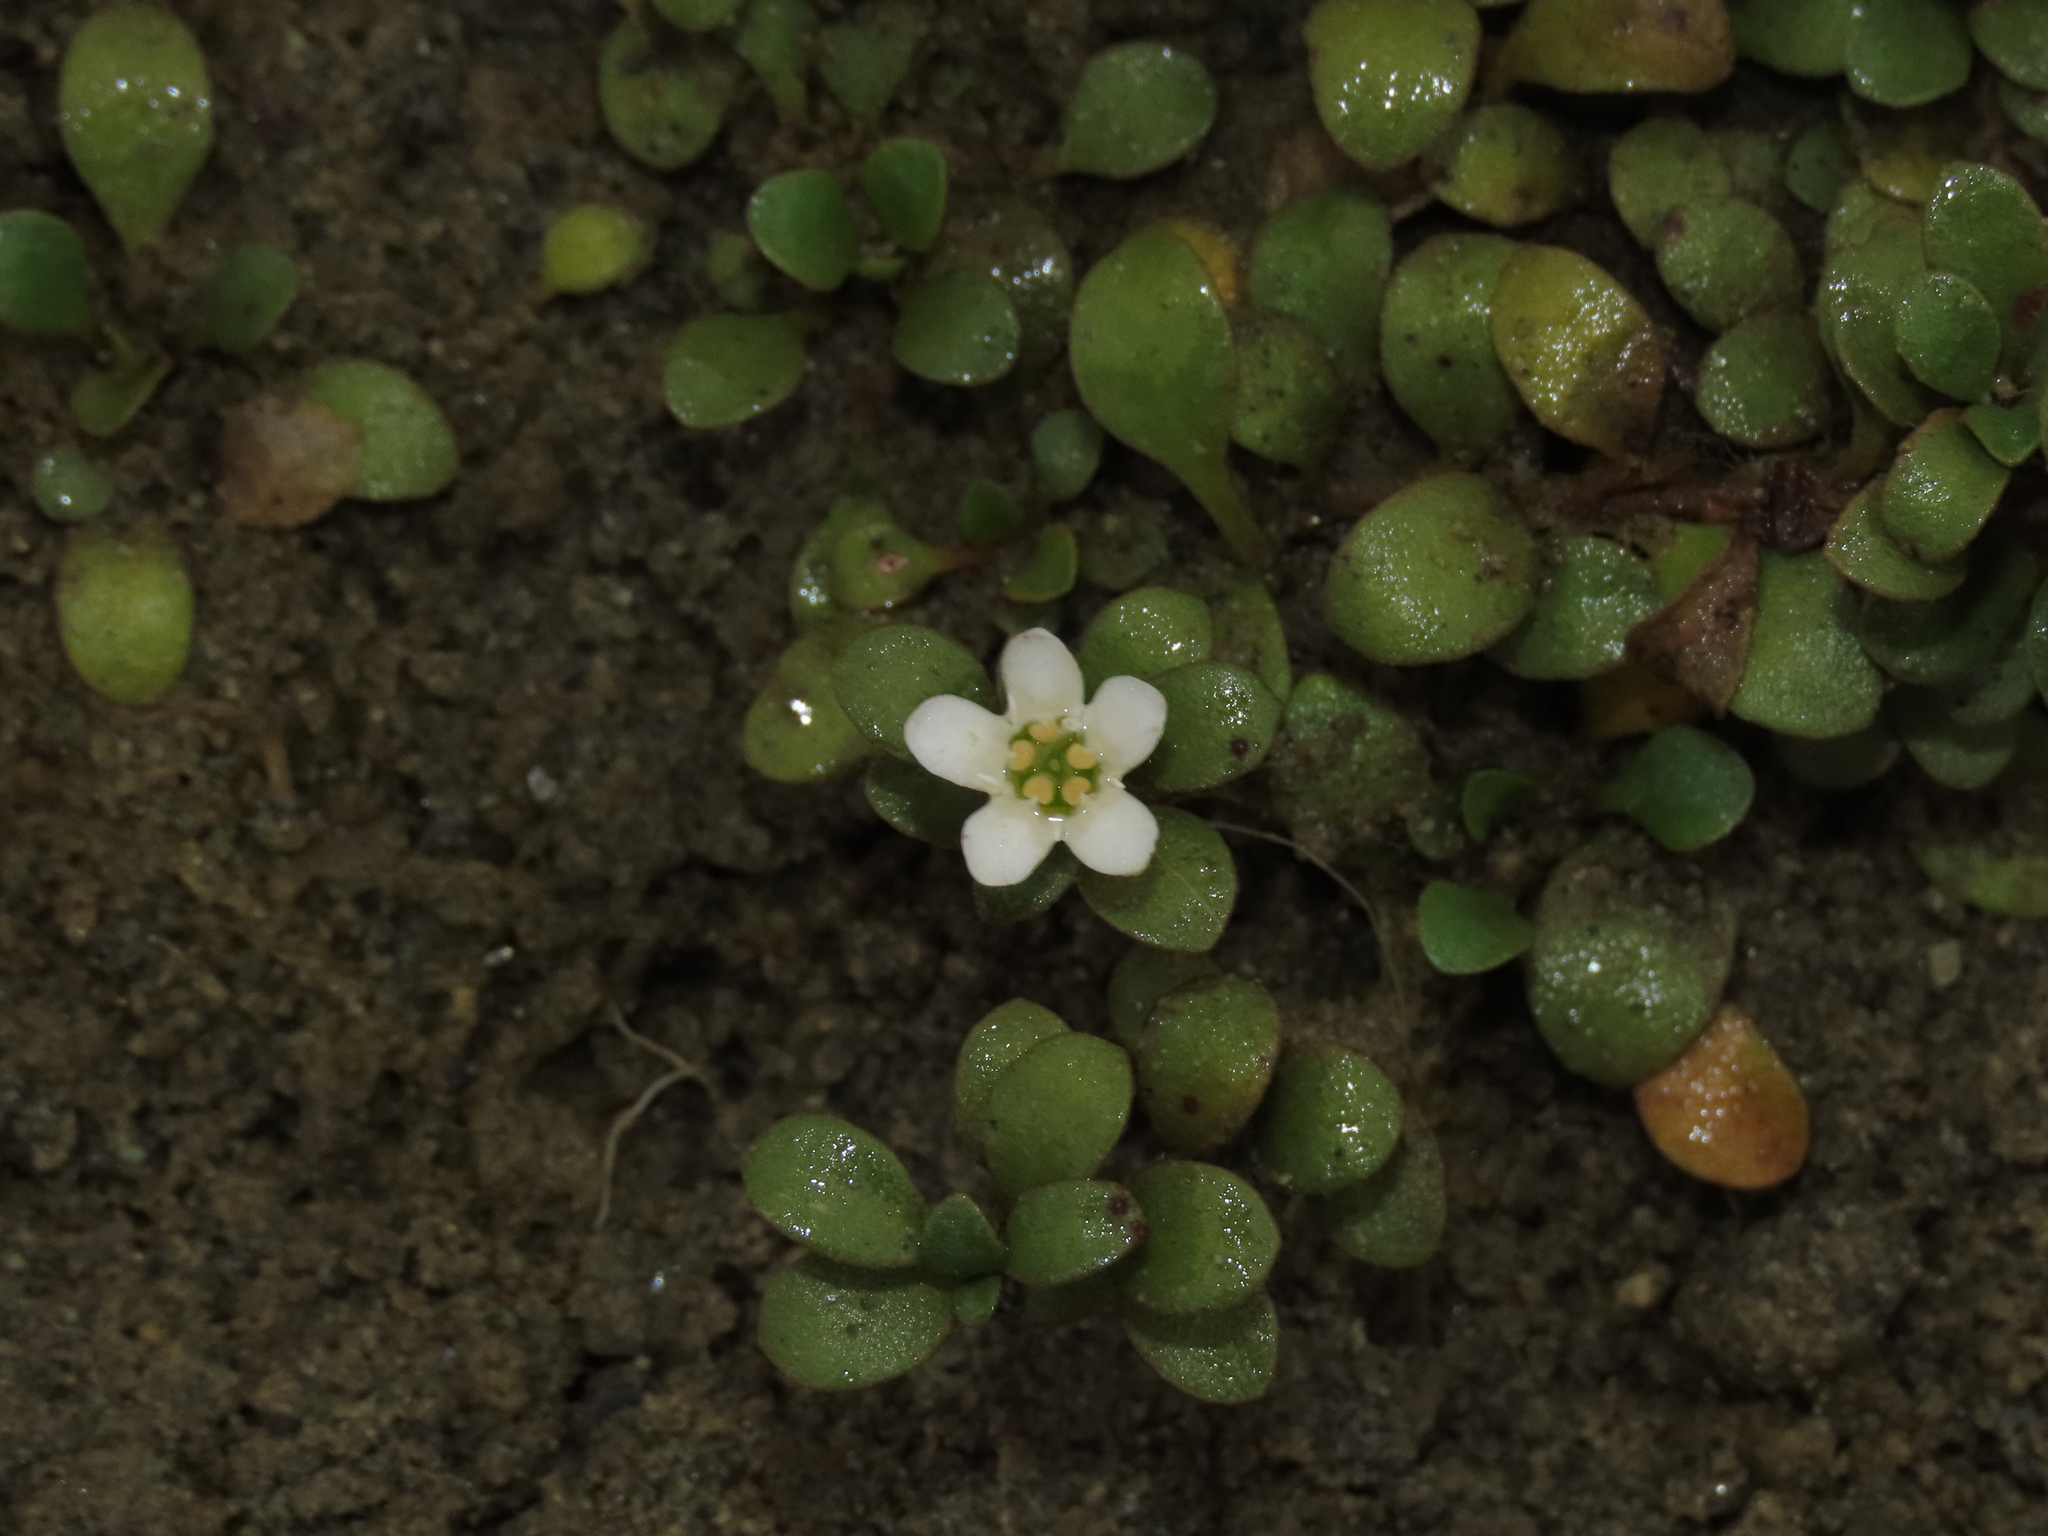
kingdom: Plantae
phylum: Tracheophyta
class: Magnoliopsida
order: Ericales
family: Primulaceae
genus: Samolus
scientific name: Samolus repens
